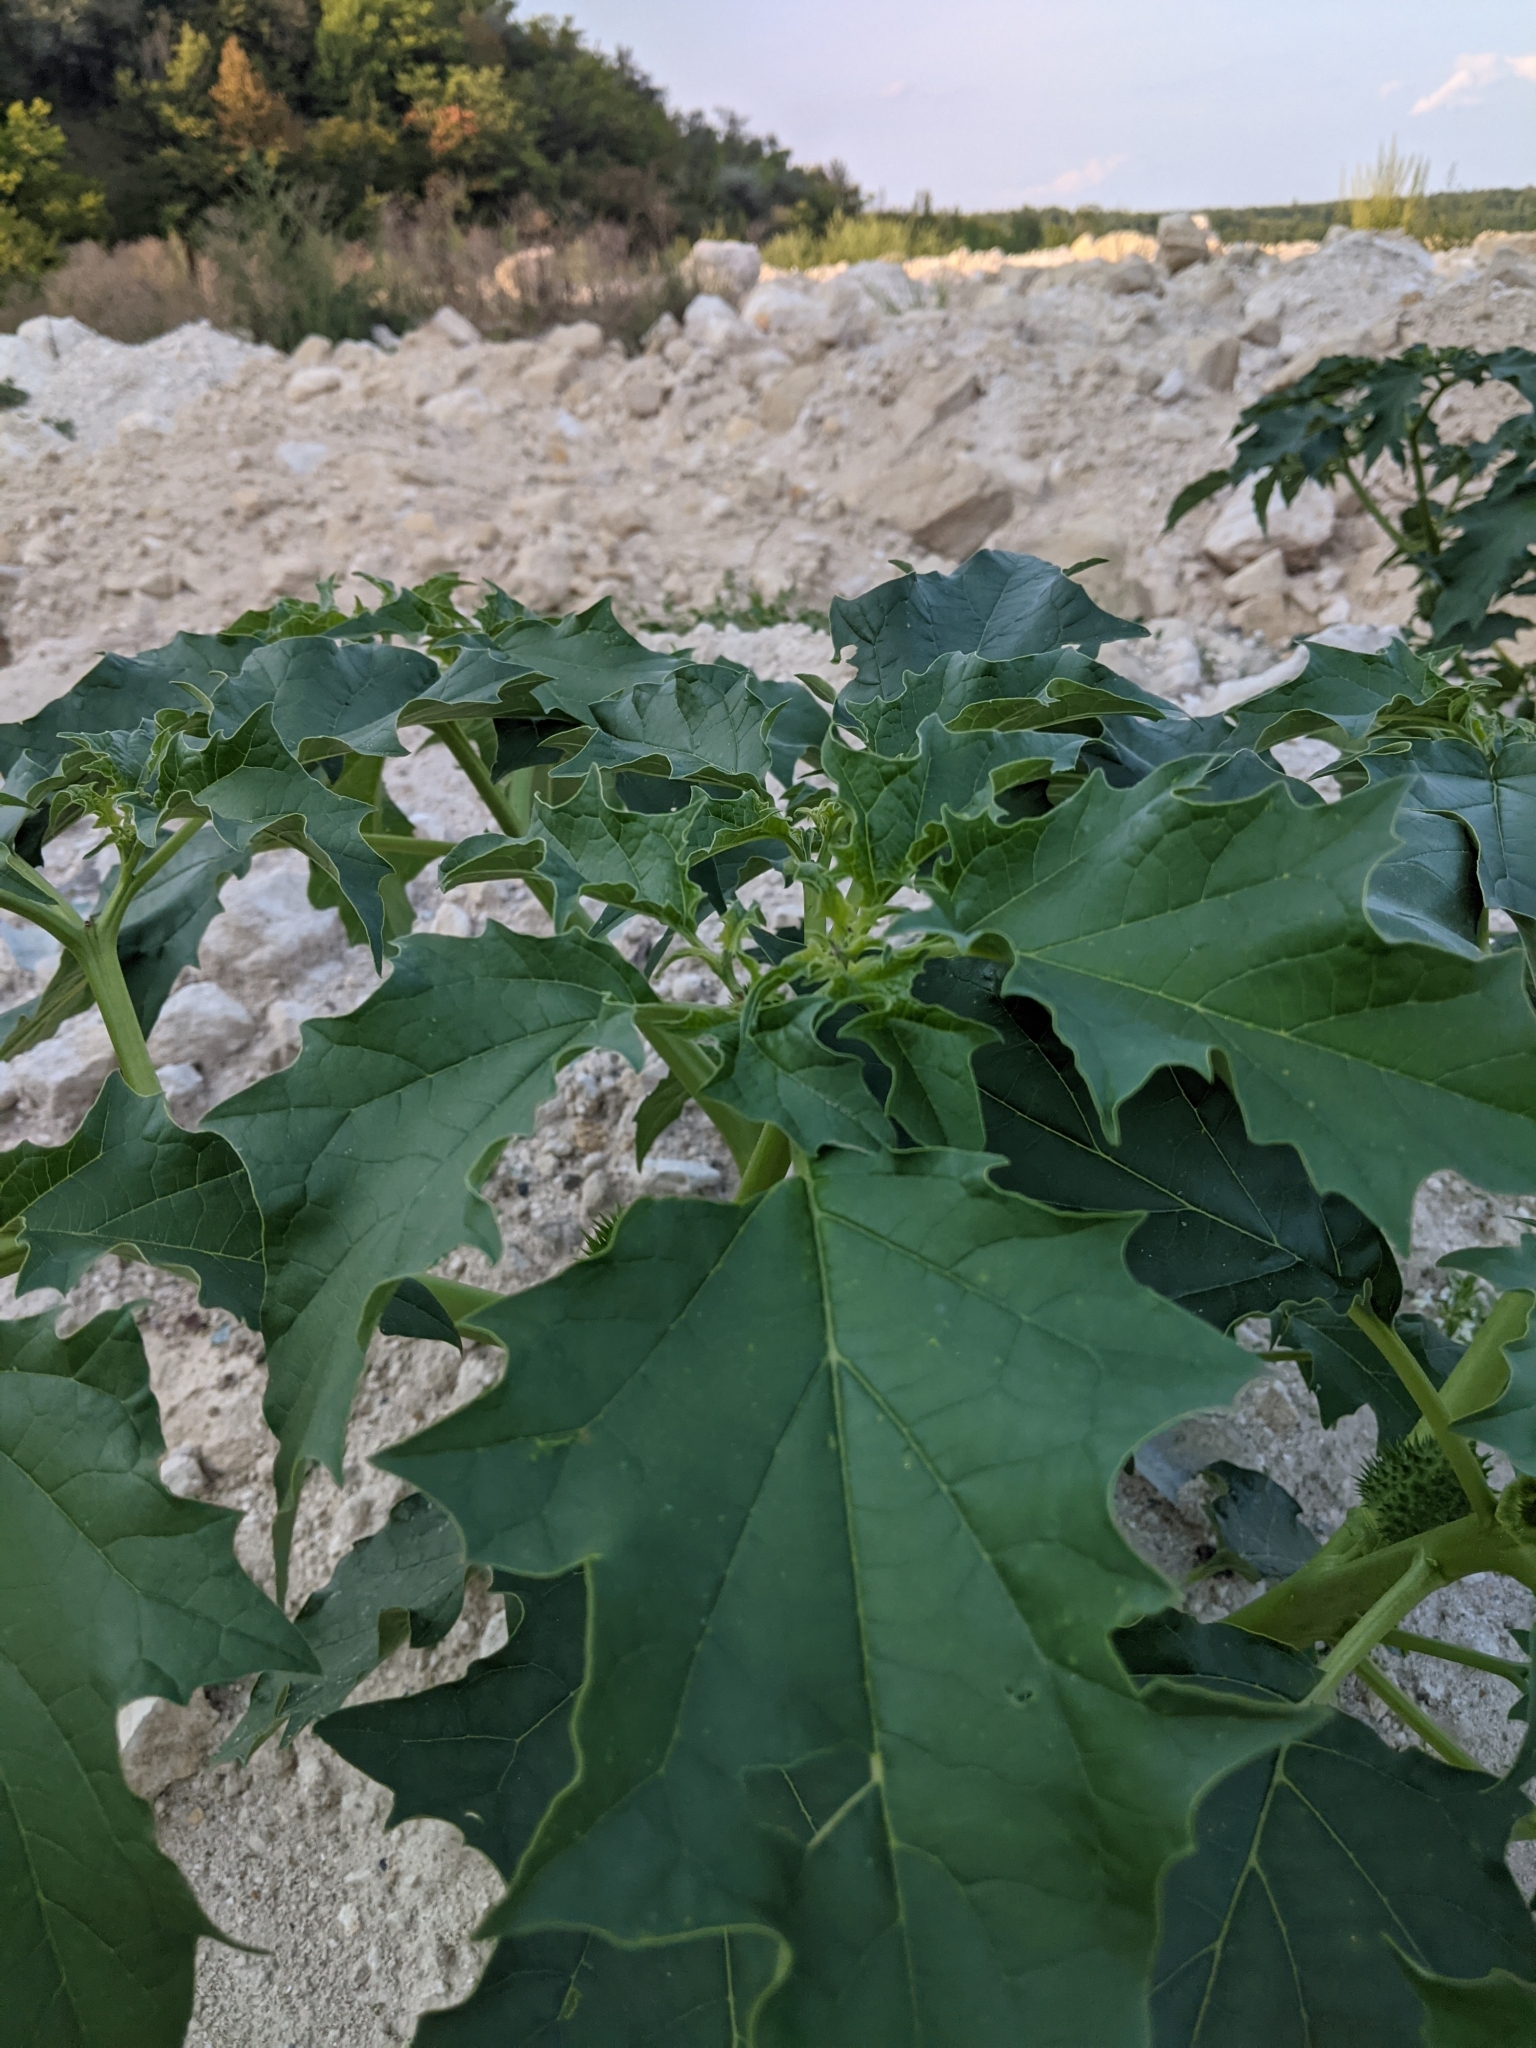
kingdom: Plantae
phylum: Tracheophyta
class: Magnoliopsida
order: Solanales
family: Solanaceae
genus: Datura
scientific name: Datura stramonium
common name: Thorn-apple
